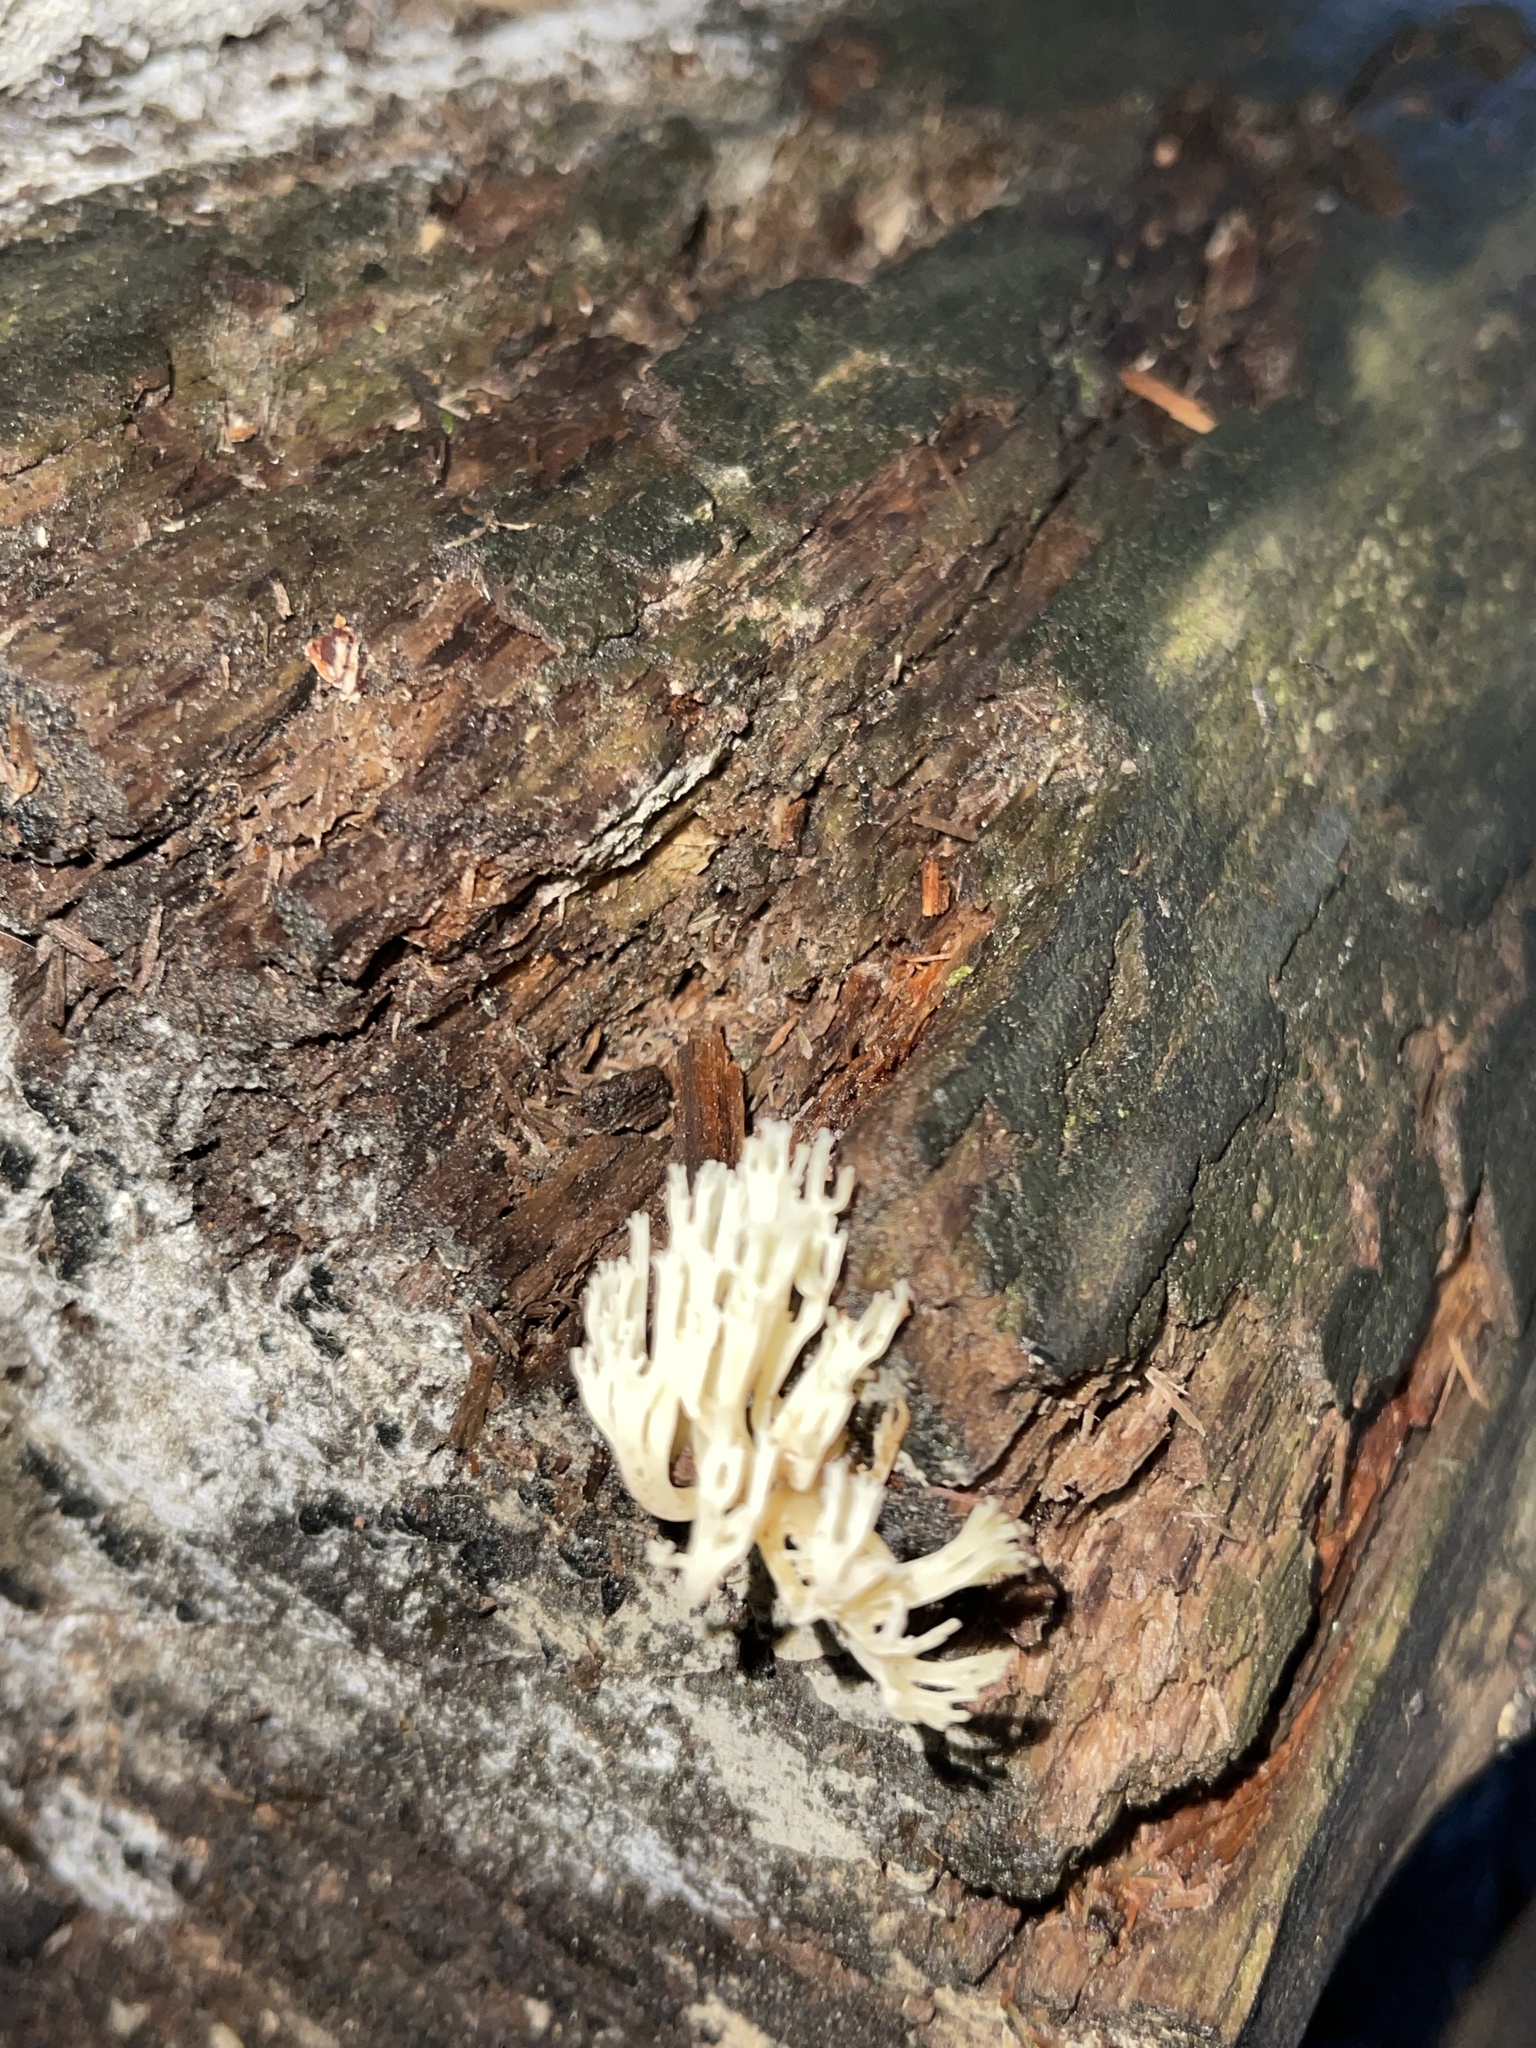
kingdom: Fungi
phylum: Basidiomycota
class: Agaricomycetes
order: Russulales
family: Auriscalpiaceae
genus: Artomyces
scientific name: Artomyces pyxidatus
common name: Crown-tipped coral fungus
